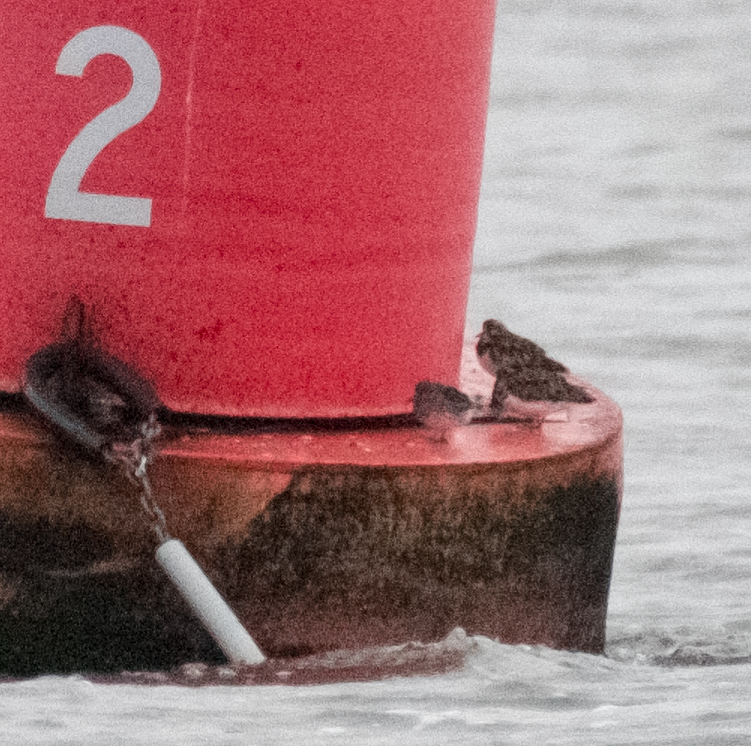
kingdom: Animalia
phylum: Chordata
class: Aves
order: Charadriiformes
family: Scolopacidae
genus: Arenaria
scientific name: Arenaria interpres
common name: Ruddy turnstone
